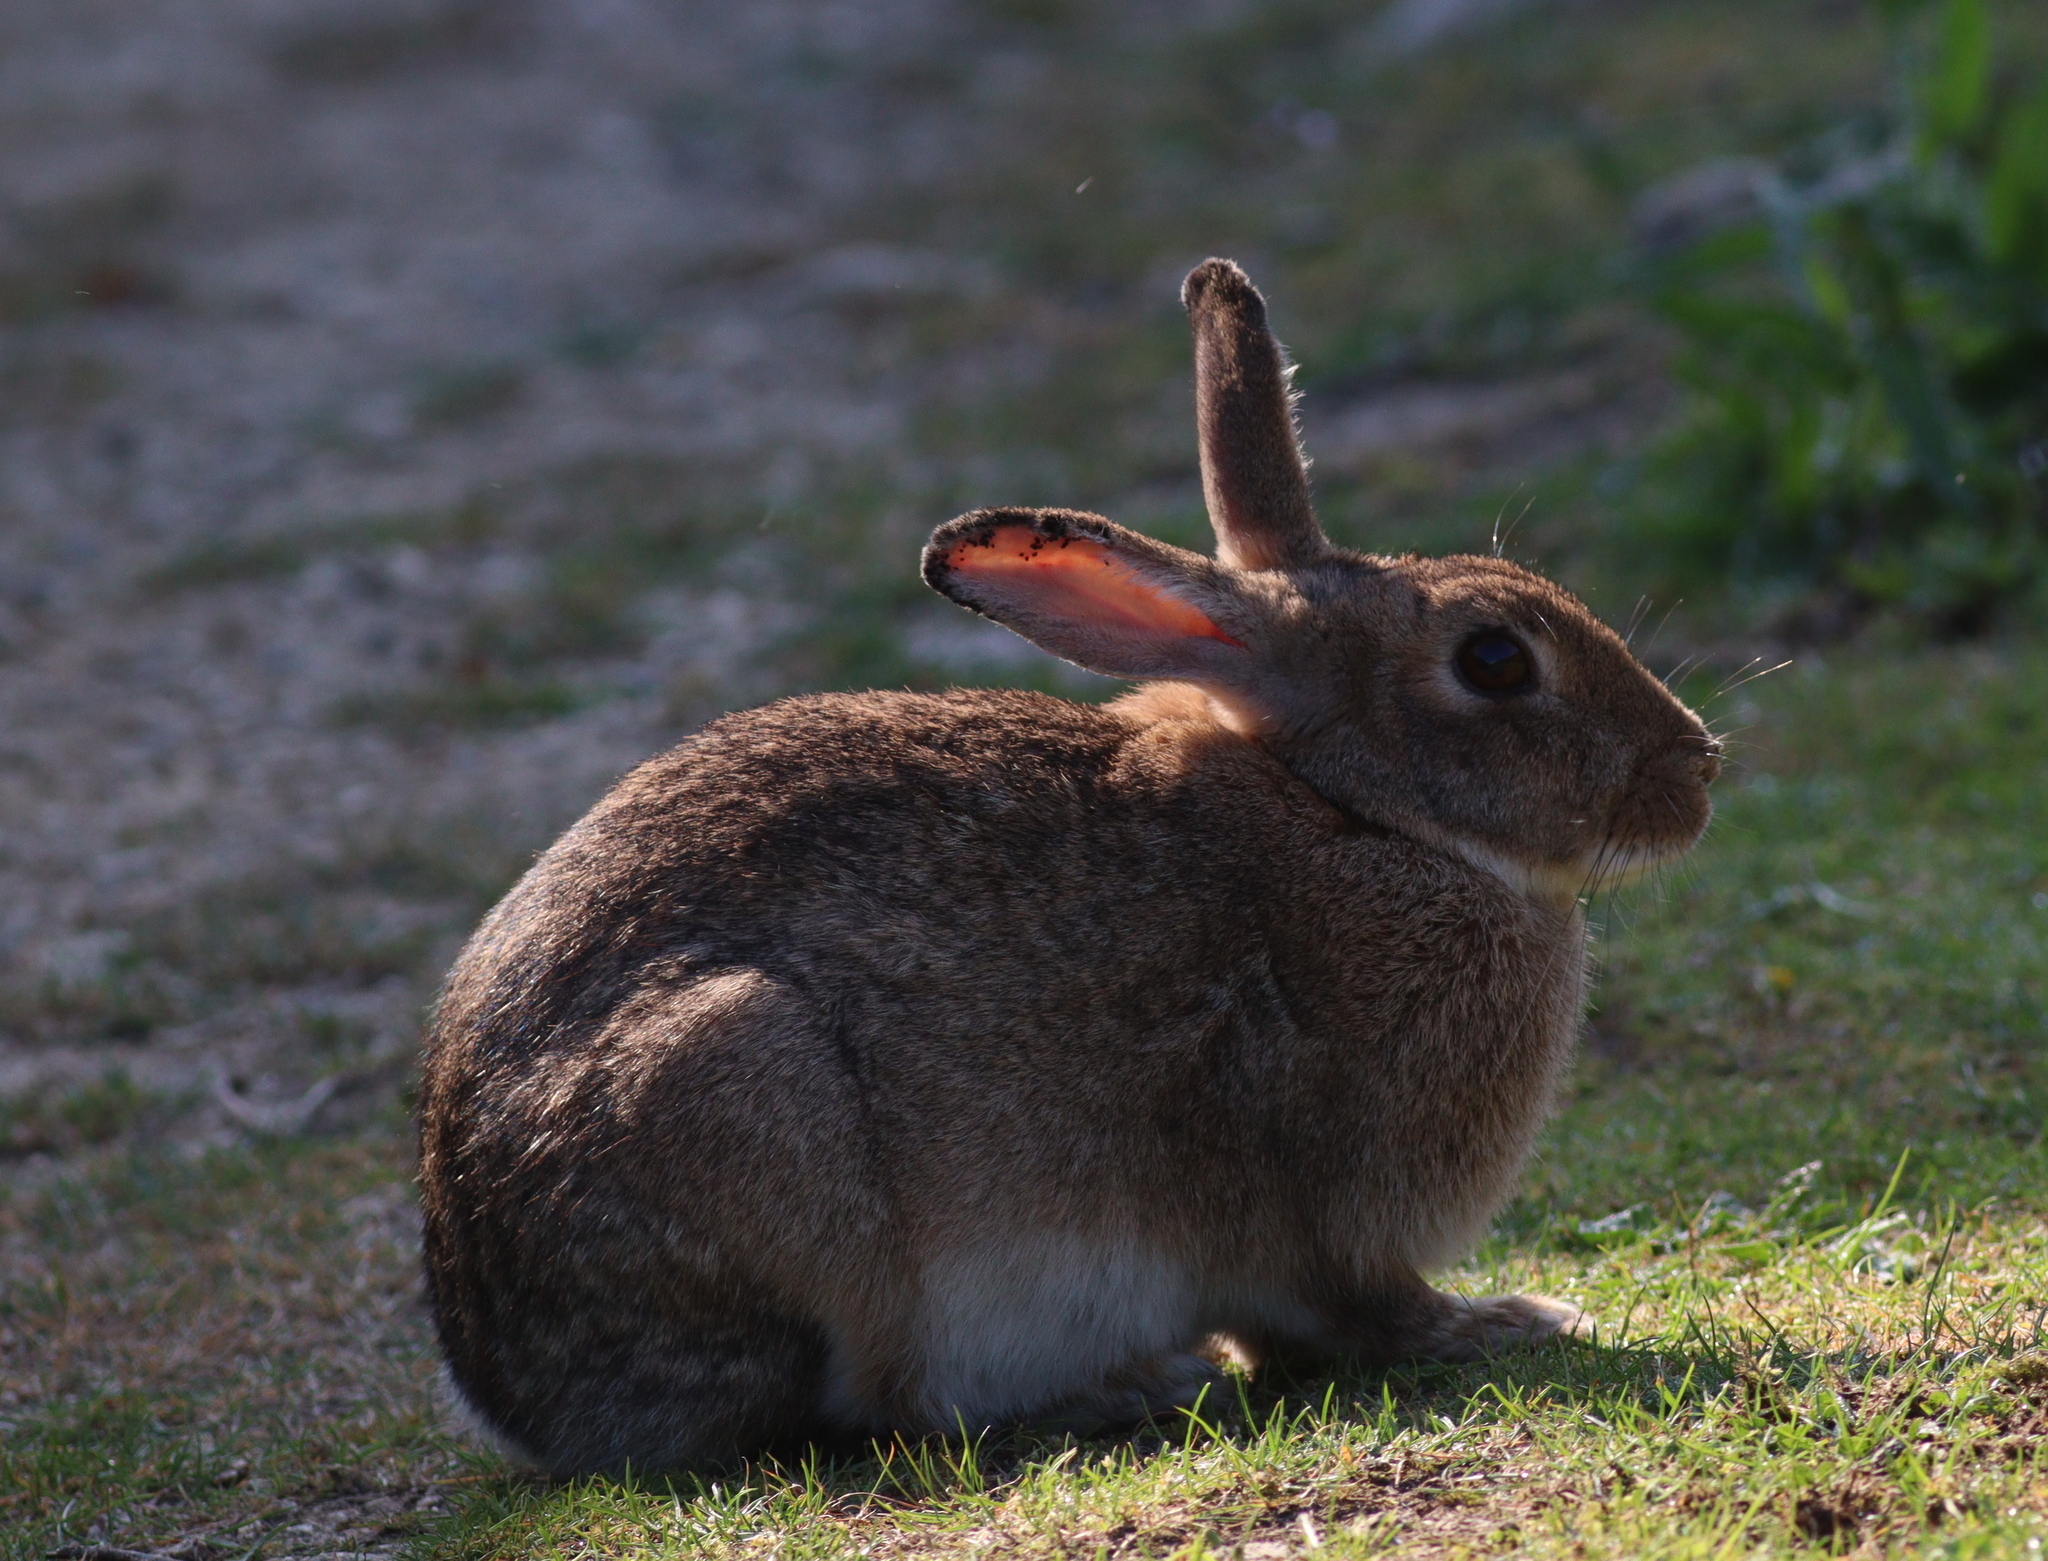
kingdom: Animalia
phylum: Chordata
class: Mammalia
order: Lagomorpha
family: Leporidae
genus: Oryctolagus
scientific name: Oryctolagus cuniculus
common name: European rabbit
